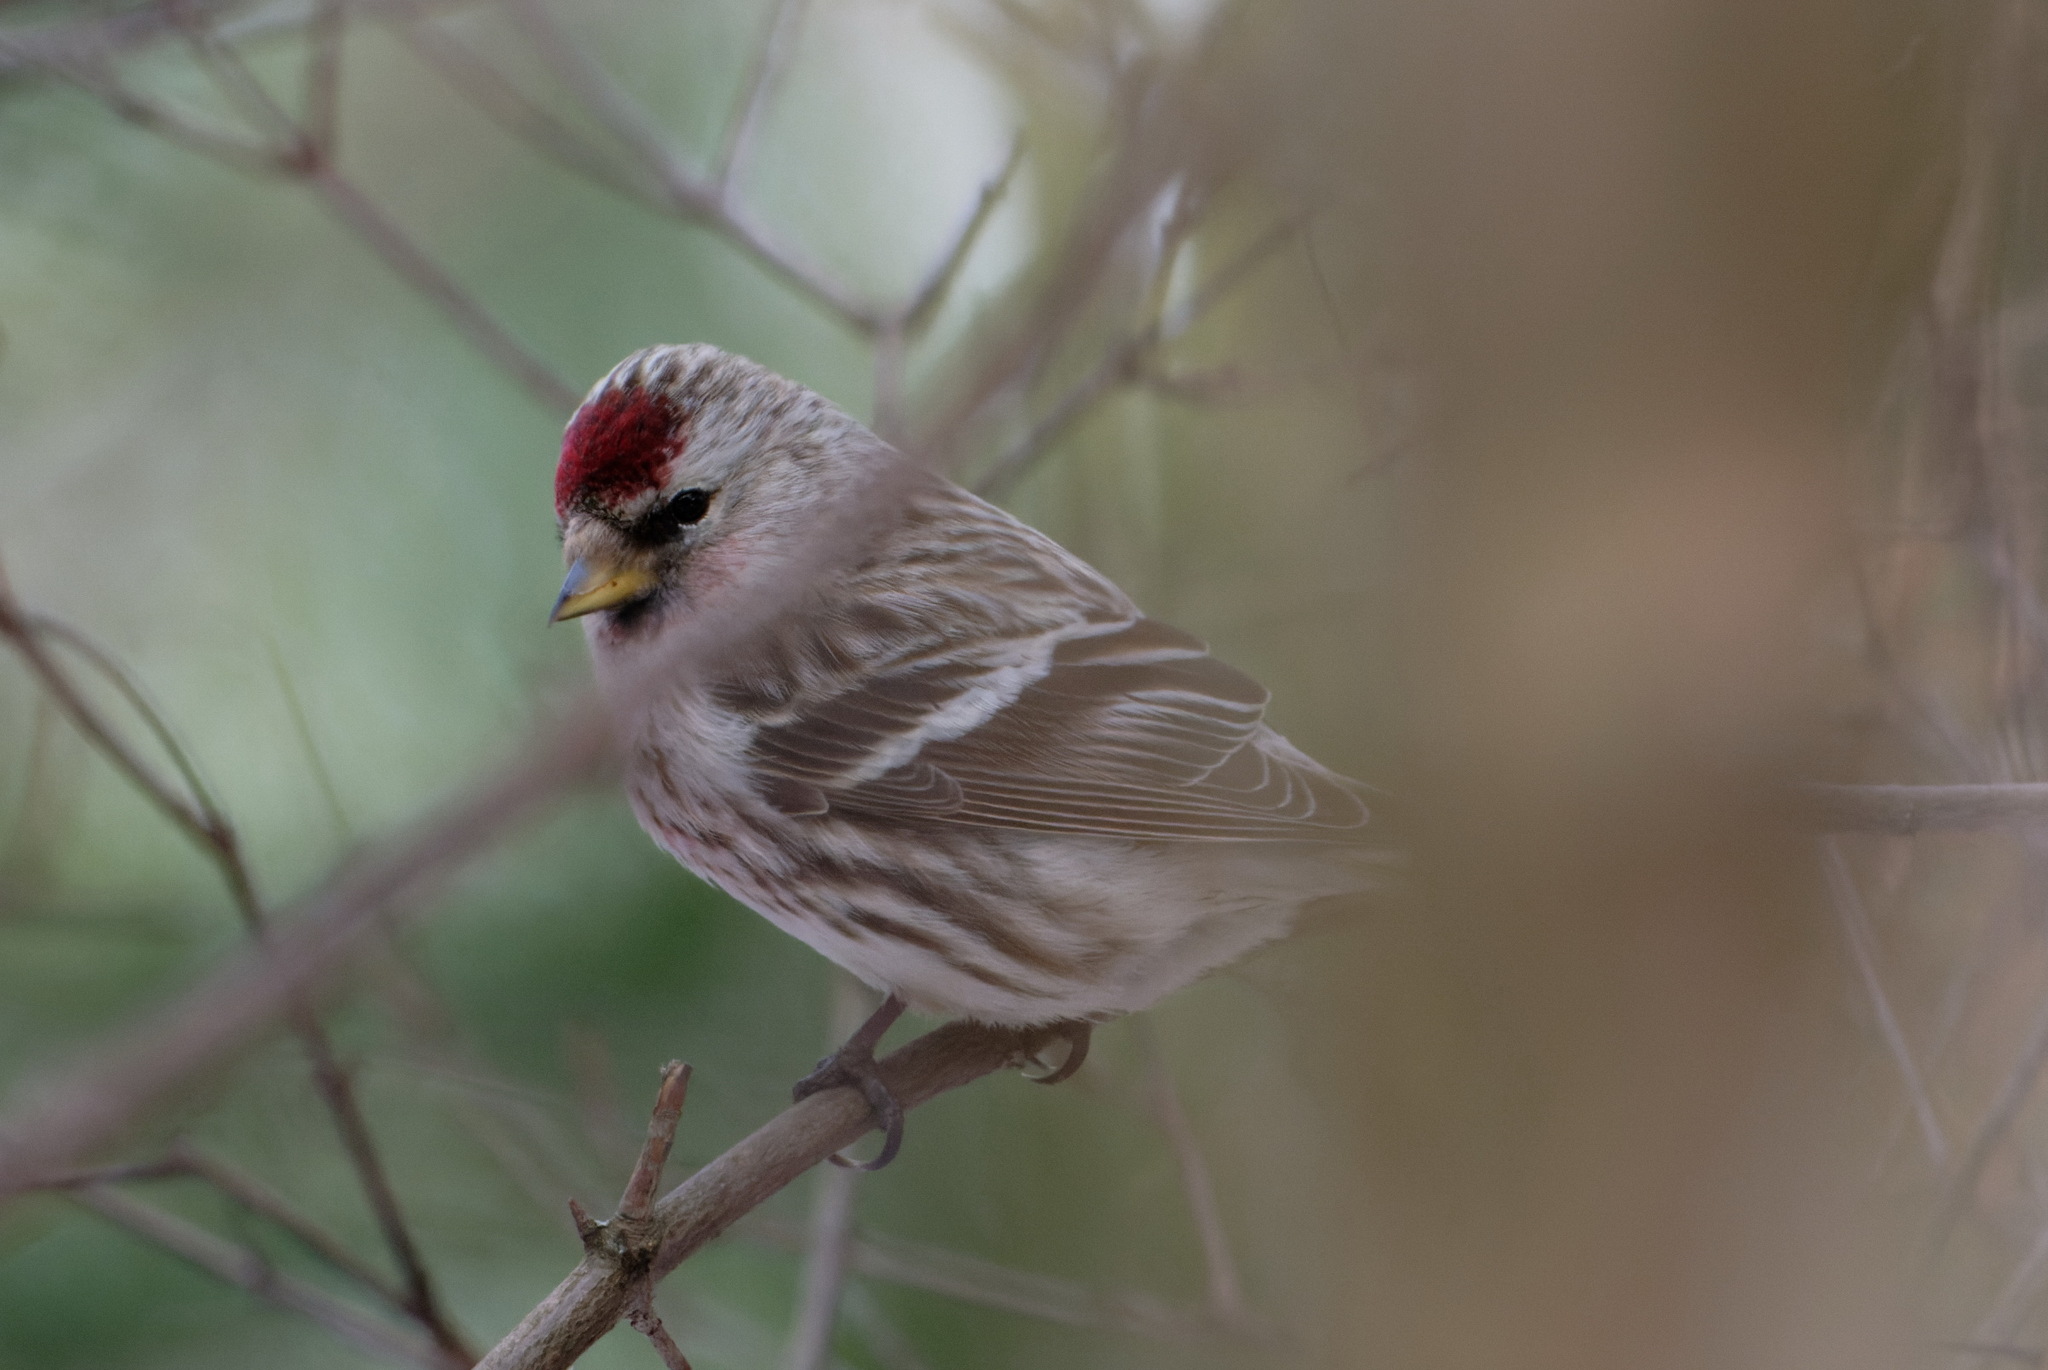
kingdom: Animalia
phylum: Chordata
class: Aves
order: Passeriformes
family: Fringillidae
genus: Acanthis
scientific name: Acanthis flammea
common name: Common redpoll
